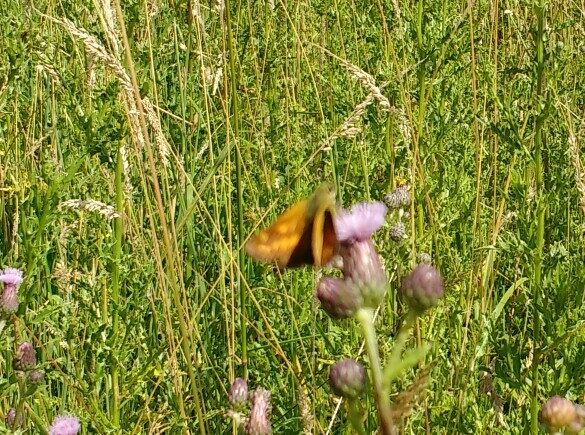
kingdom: Animalia
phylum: Arthropoda
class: Insecta
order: Lepidoptera
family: Hesperiidae
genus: Ochlodes
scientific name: Ochlodes venata
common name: Large skipper
